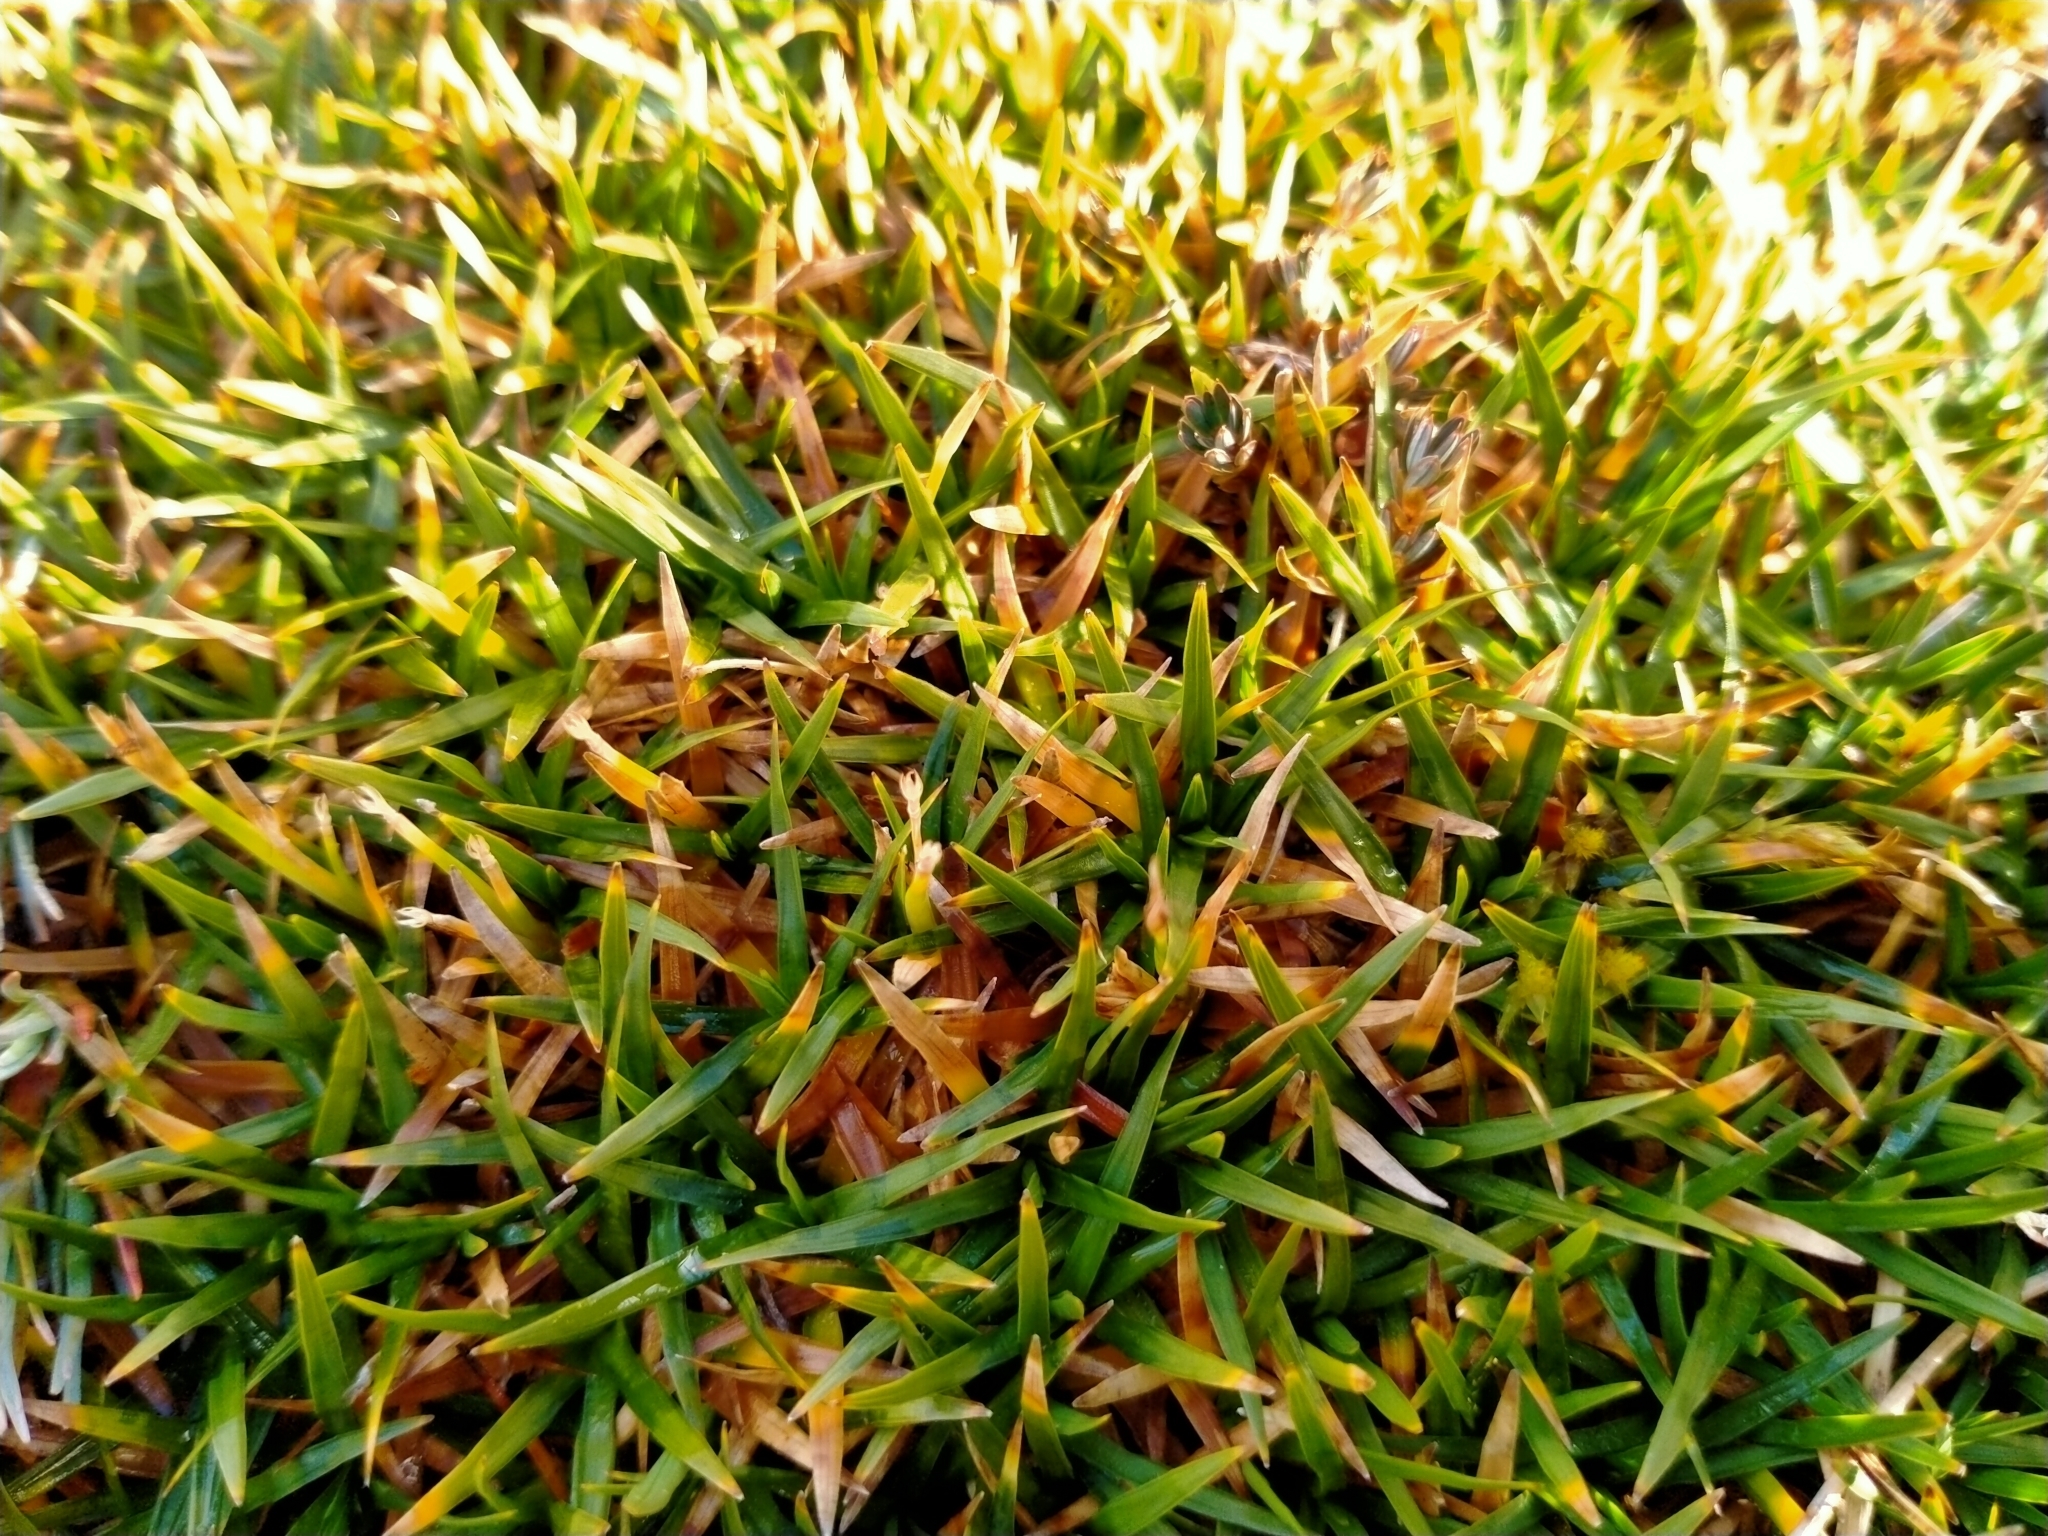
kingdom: Plantae
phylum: Tracheophyta
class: Liliopsida
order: Poales
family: Cyperaceae
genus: Oreobolus
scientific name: Oreobolus impar
